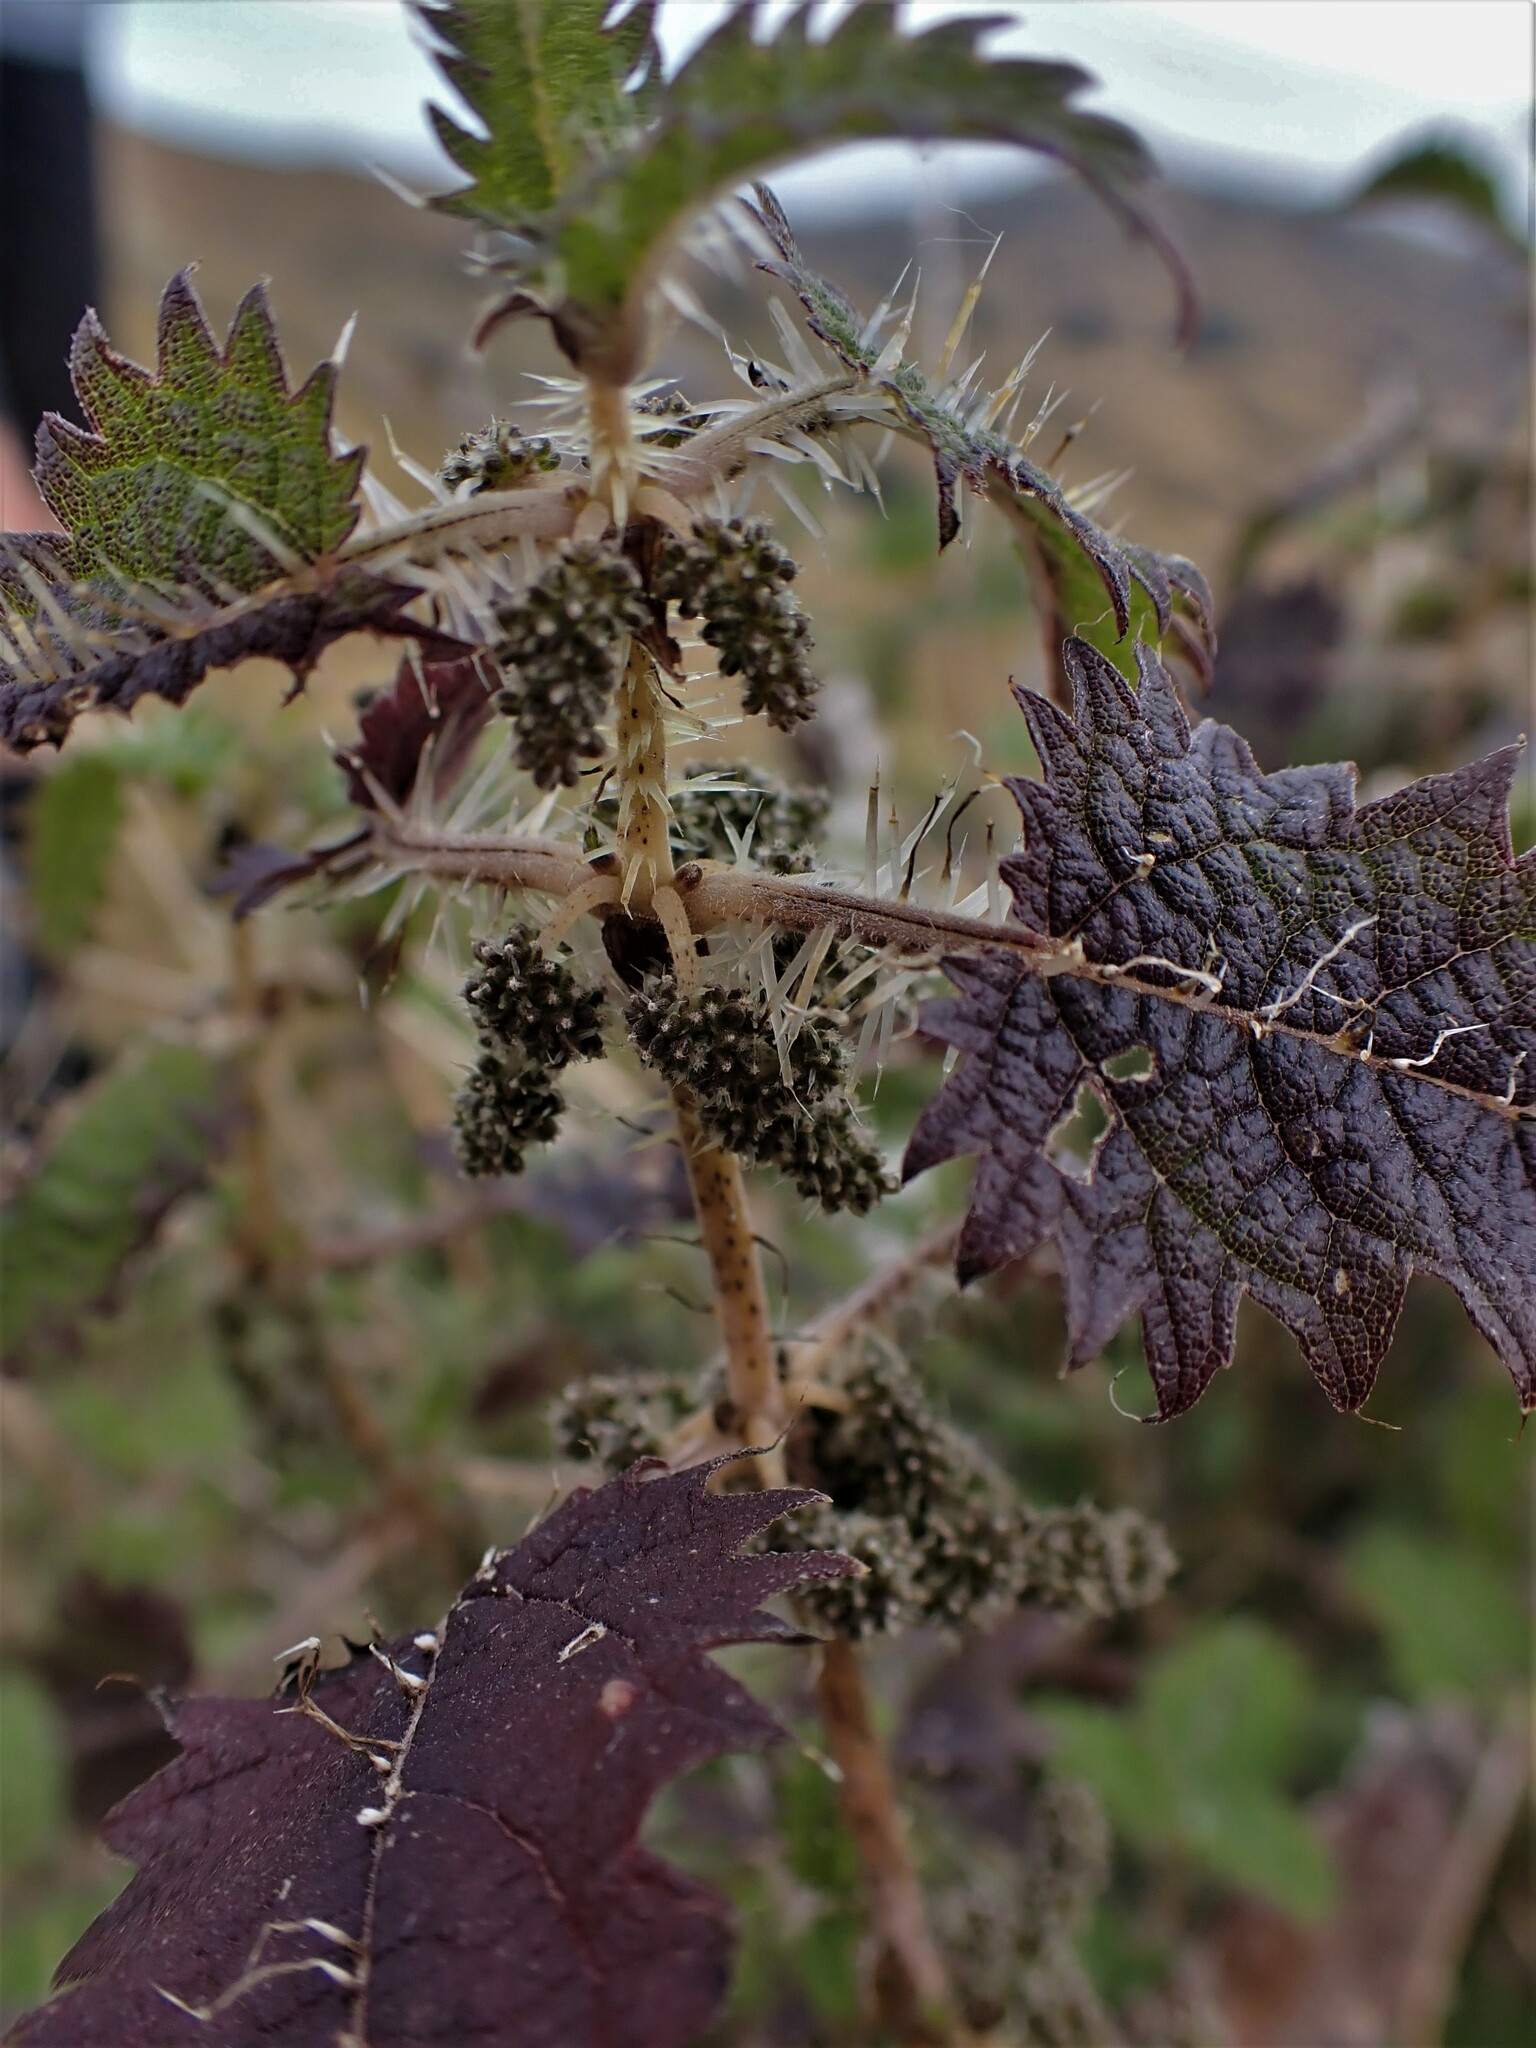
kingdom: Plantae
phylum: Tracheophyta
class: Magnoliopsida
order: Rosales
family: Urticaceae
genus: Urtica
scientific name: Urtica ferox
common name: Tree nettle
